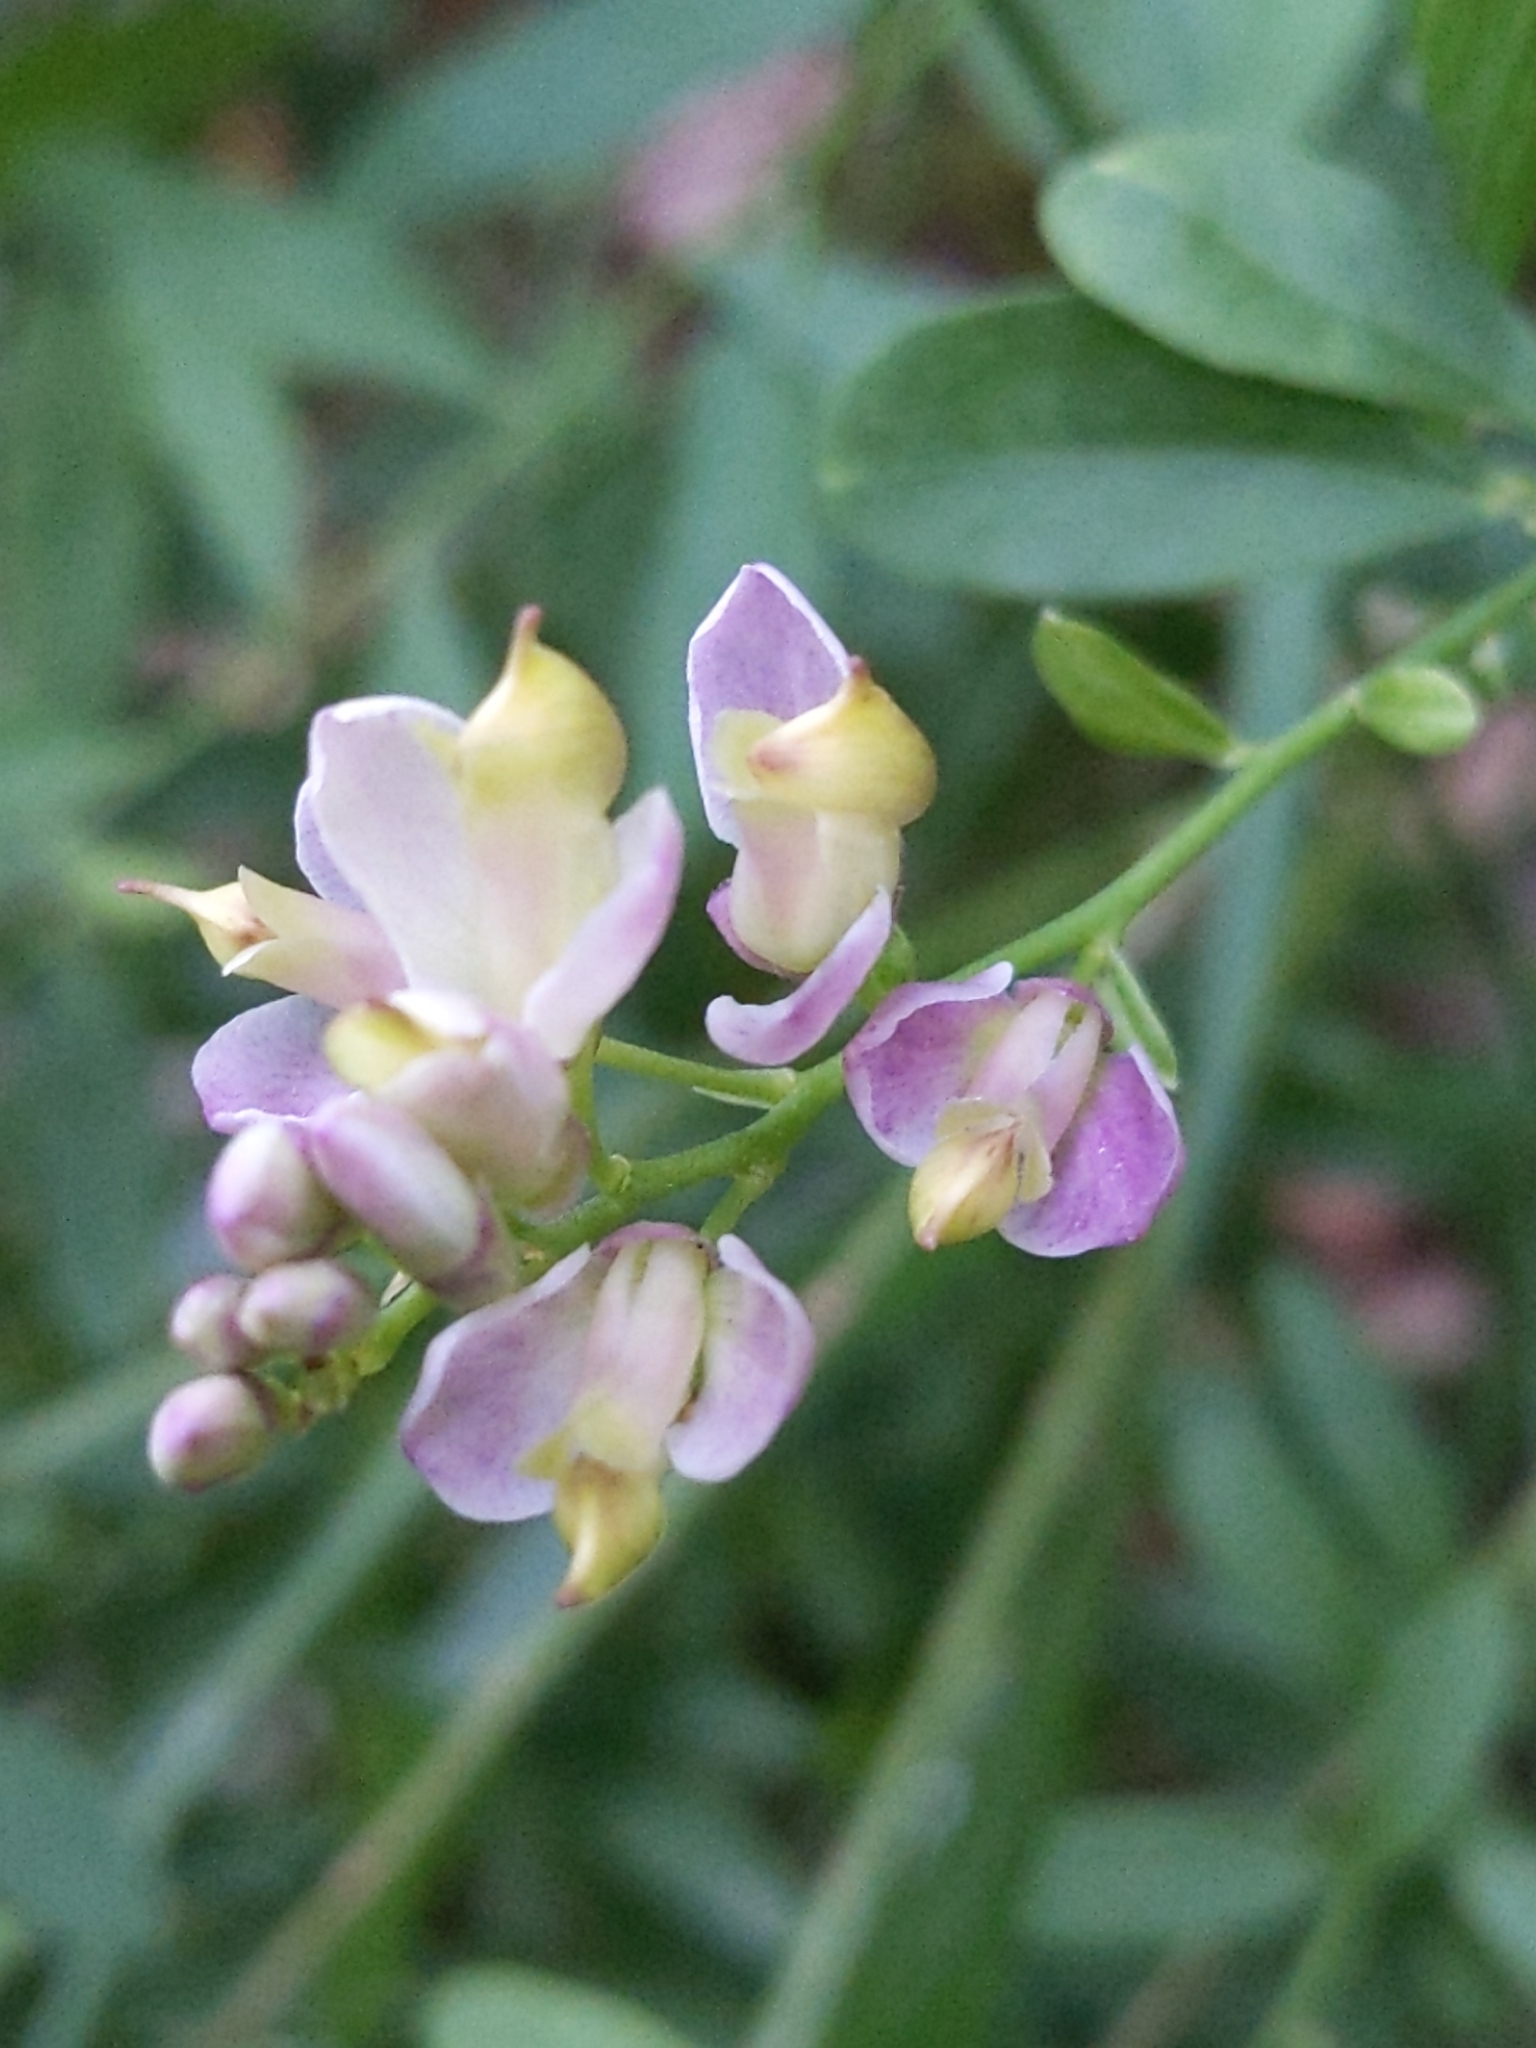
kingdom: Plantae
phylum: Tracheophyta
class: Magnoliopsida
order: Fabales
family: Polygalaceae
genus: Rhinotropis
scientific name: Rhinotropis cornuta
